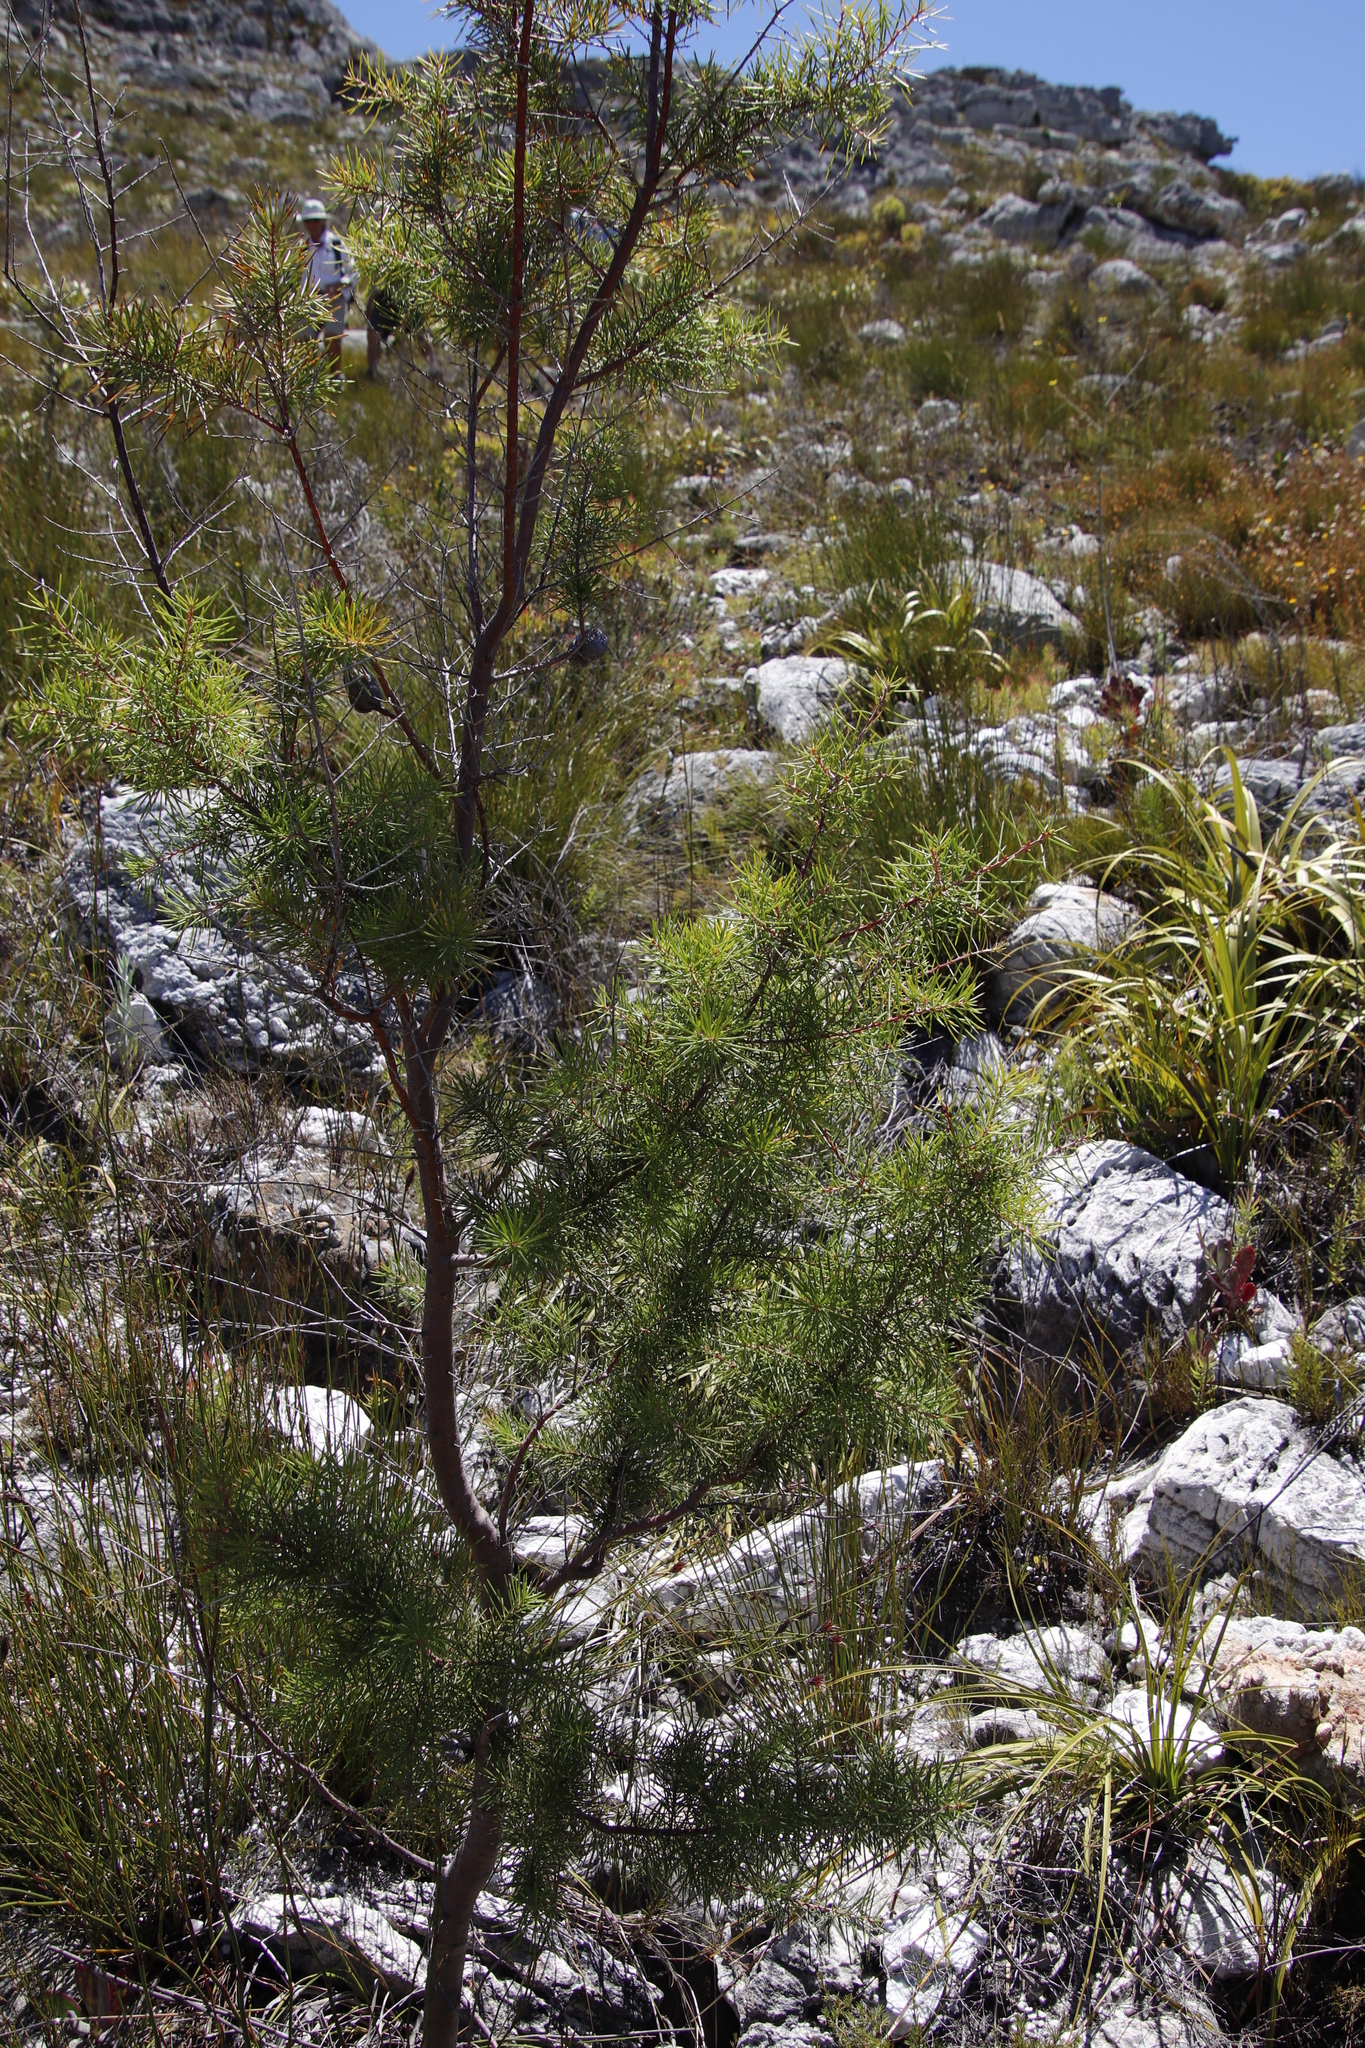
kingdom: Plantae
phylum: Tracheophyta
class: Magnoliopsida
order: Proteales
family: Proteaceae
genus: Hakea
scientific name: Hakea sericea
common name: Needle bush
